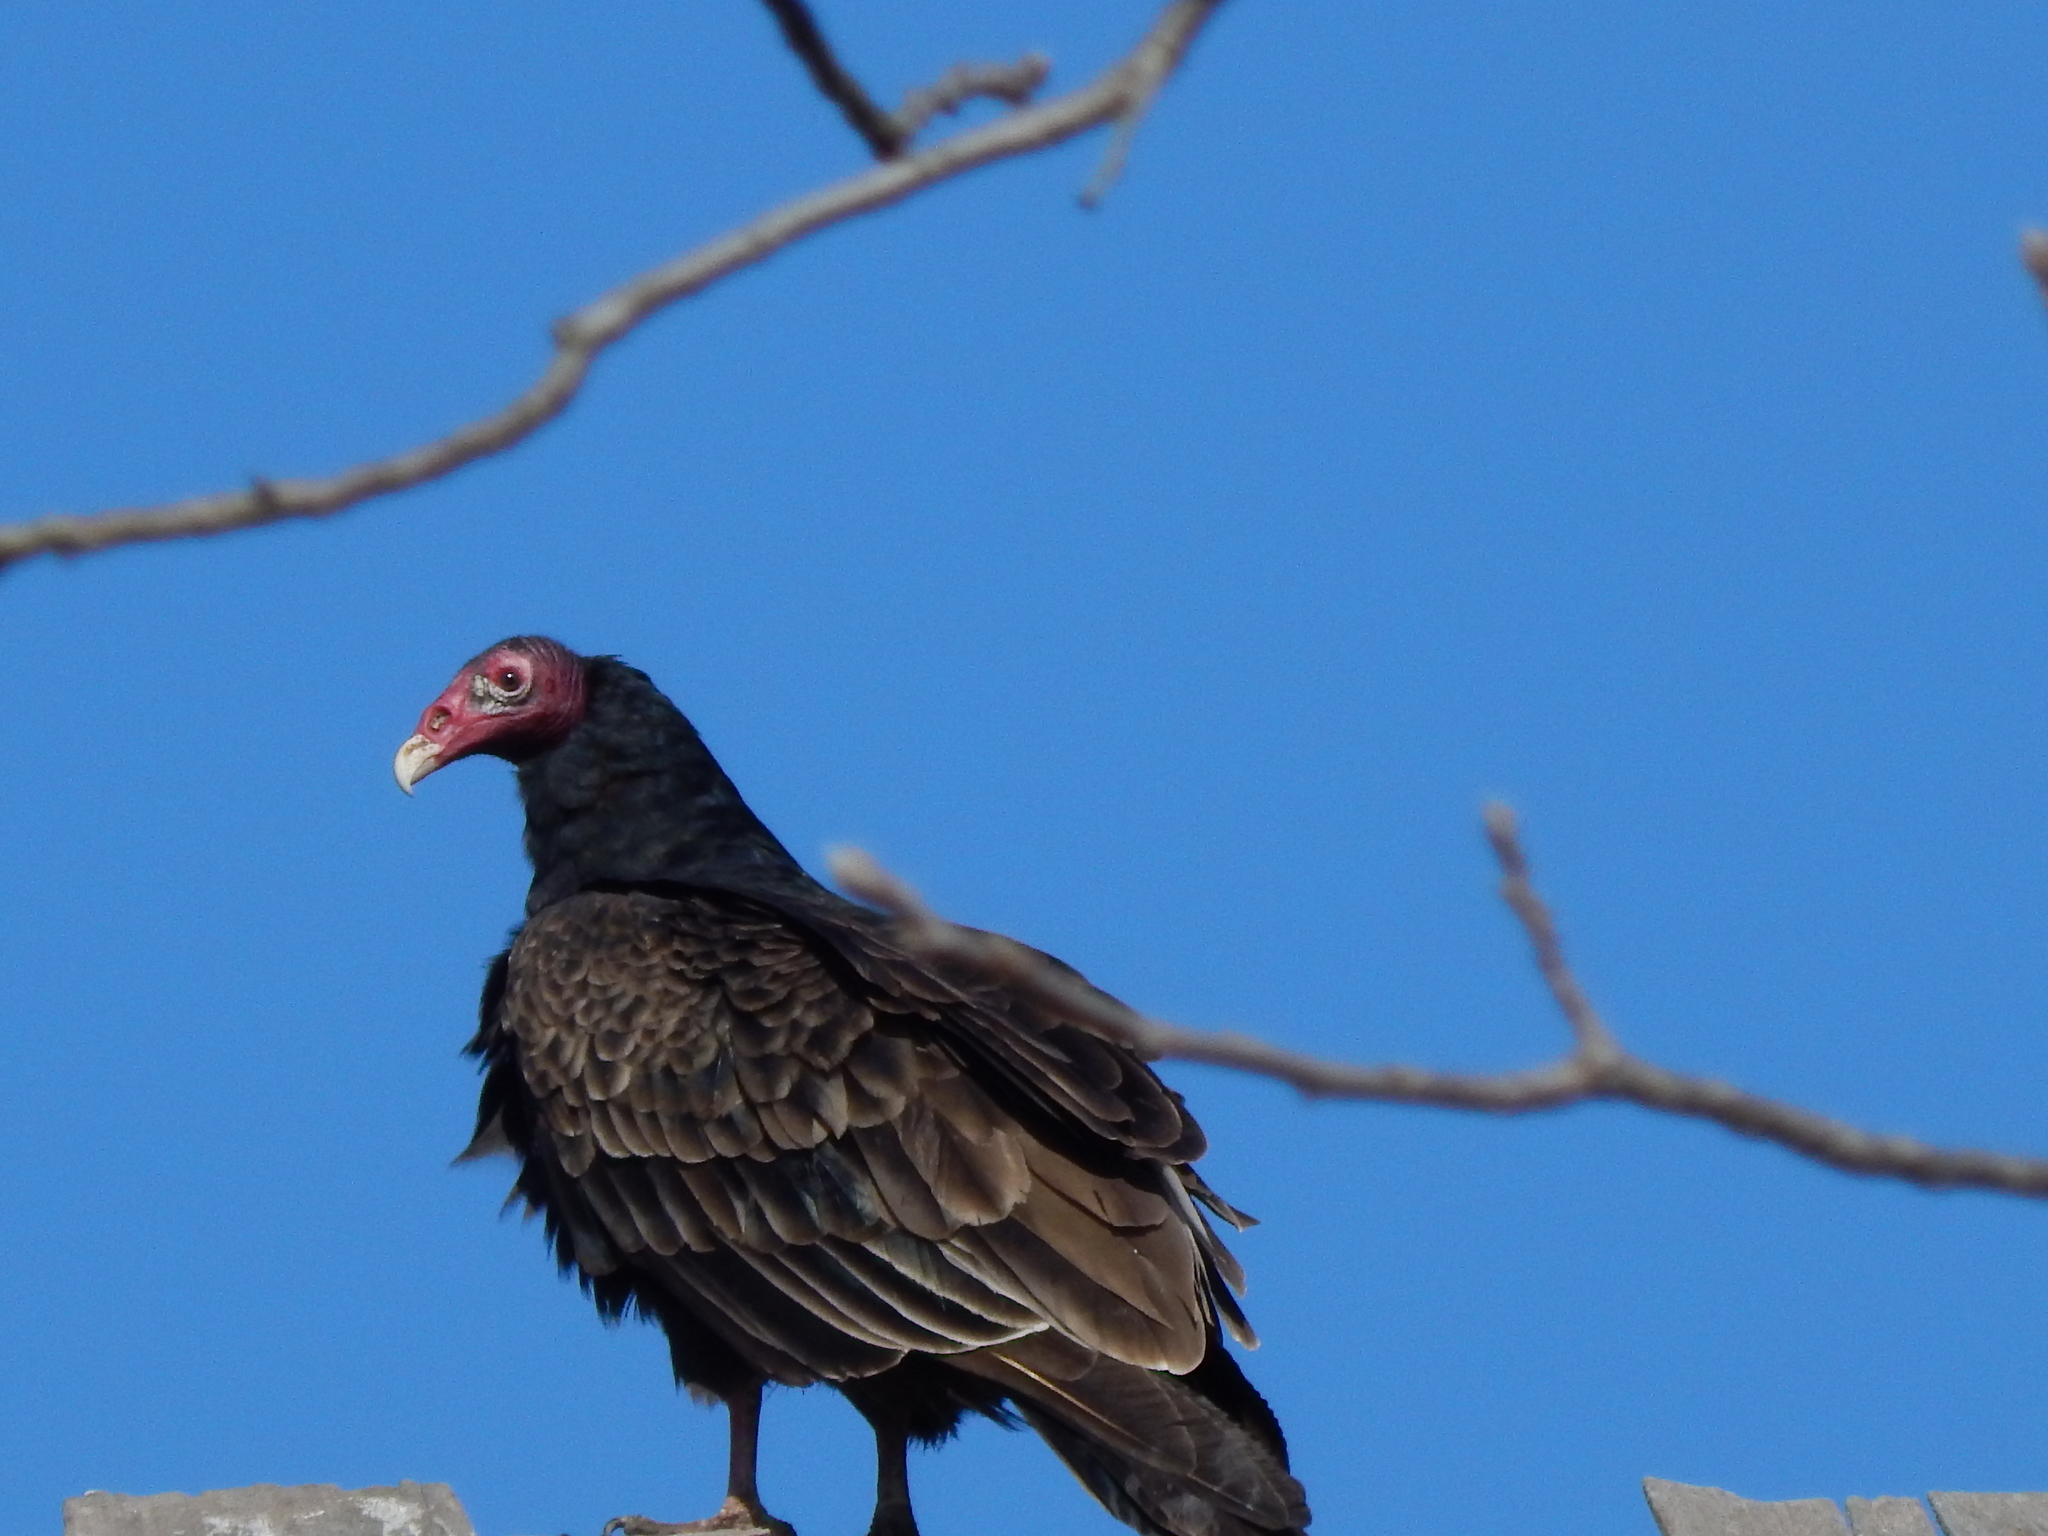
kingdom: Animalia
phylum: Chordata
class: Aves
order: Accipitriformes
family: Cathartidae
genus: Cathartes
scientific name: Cathartes aura
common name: Turkey vulture
